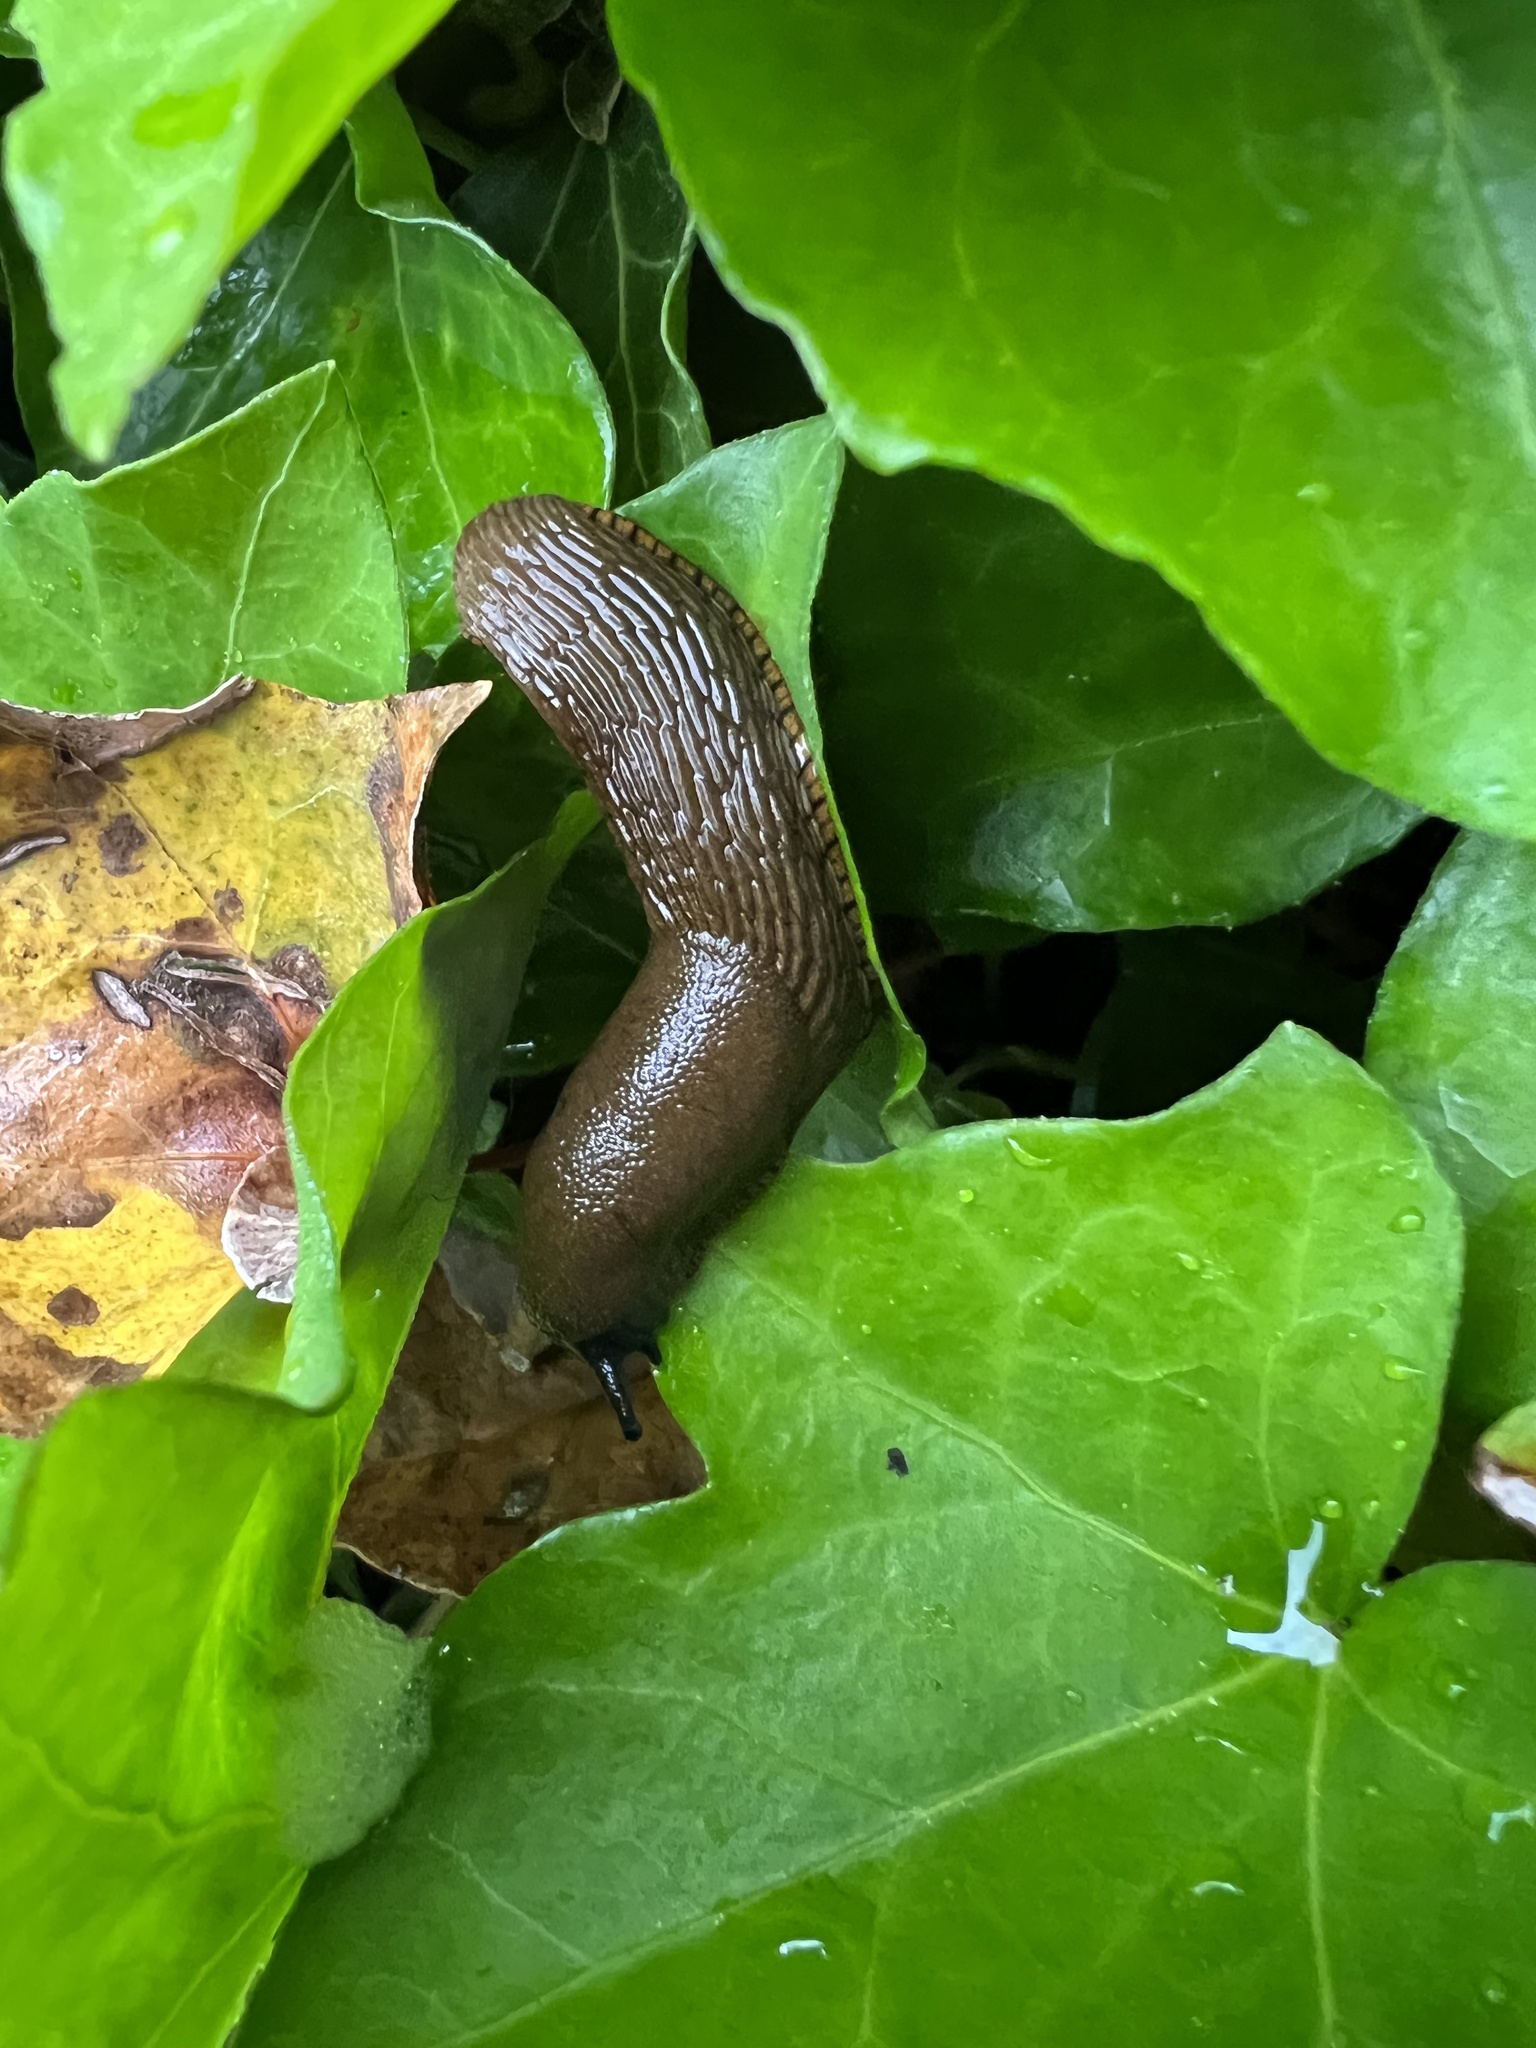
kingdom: Animalia
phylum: Mollusca
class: Gastropoda
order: Stylommatophora
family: Arionidae
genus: Arion
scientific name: Arion
